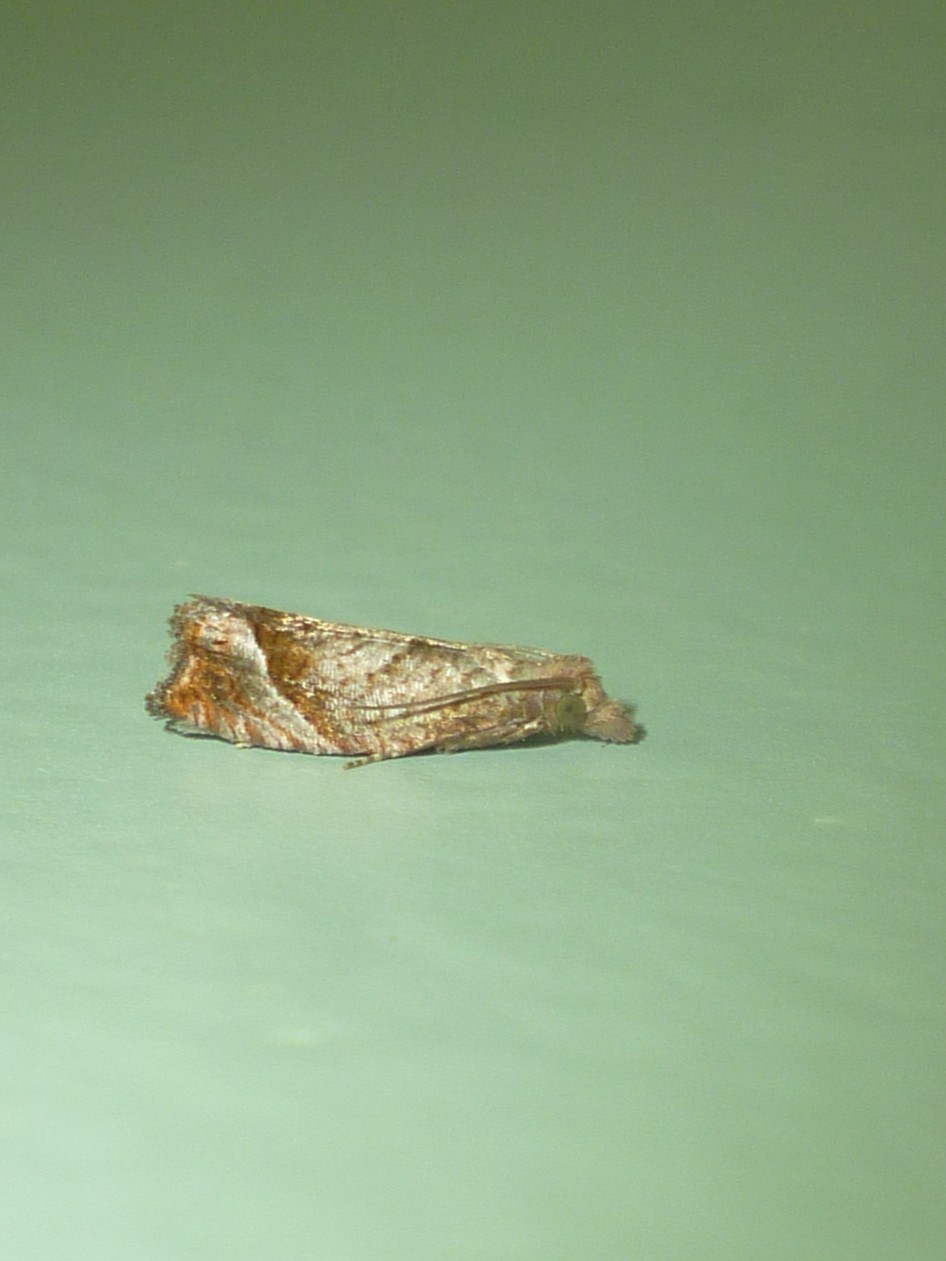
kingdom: Animalia
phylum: Arthropoda
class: Insecta
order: Lepidoptera
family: Tortricidae
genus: Pelochrista
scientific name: Pelochrista derelicta
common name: Derelict pelochrista moth
